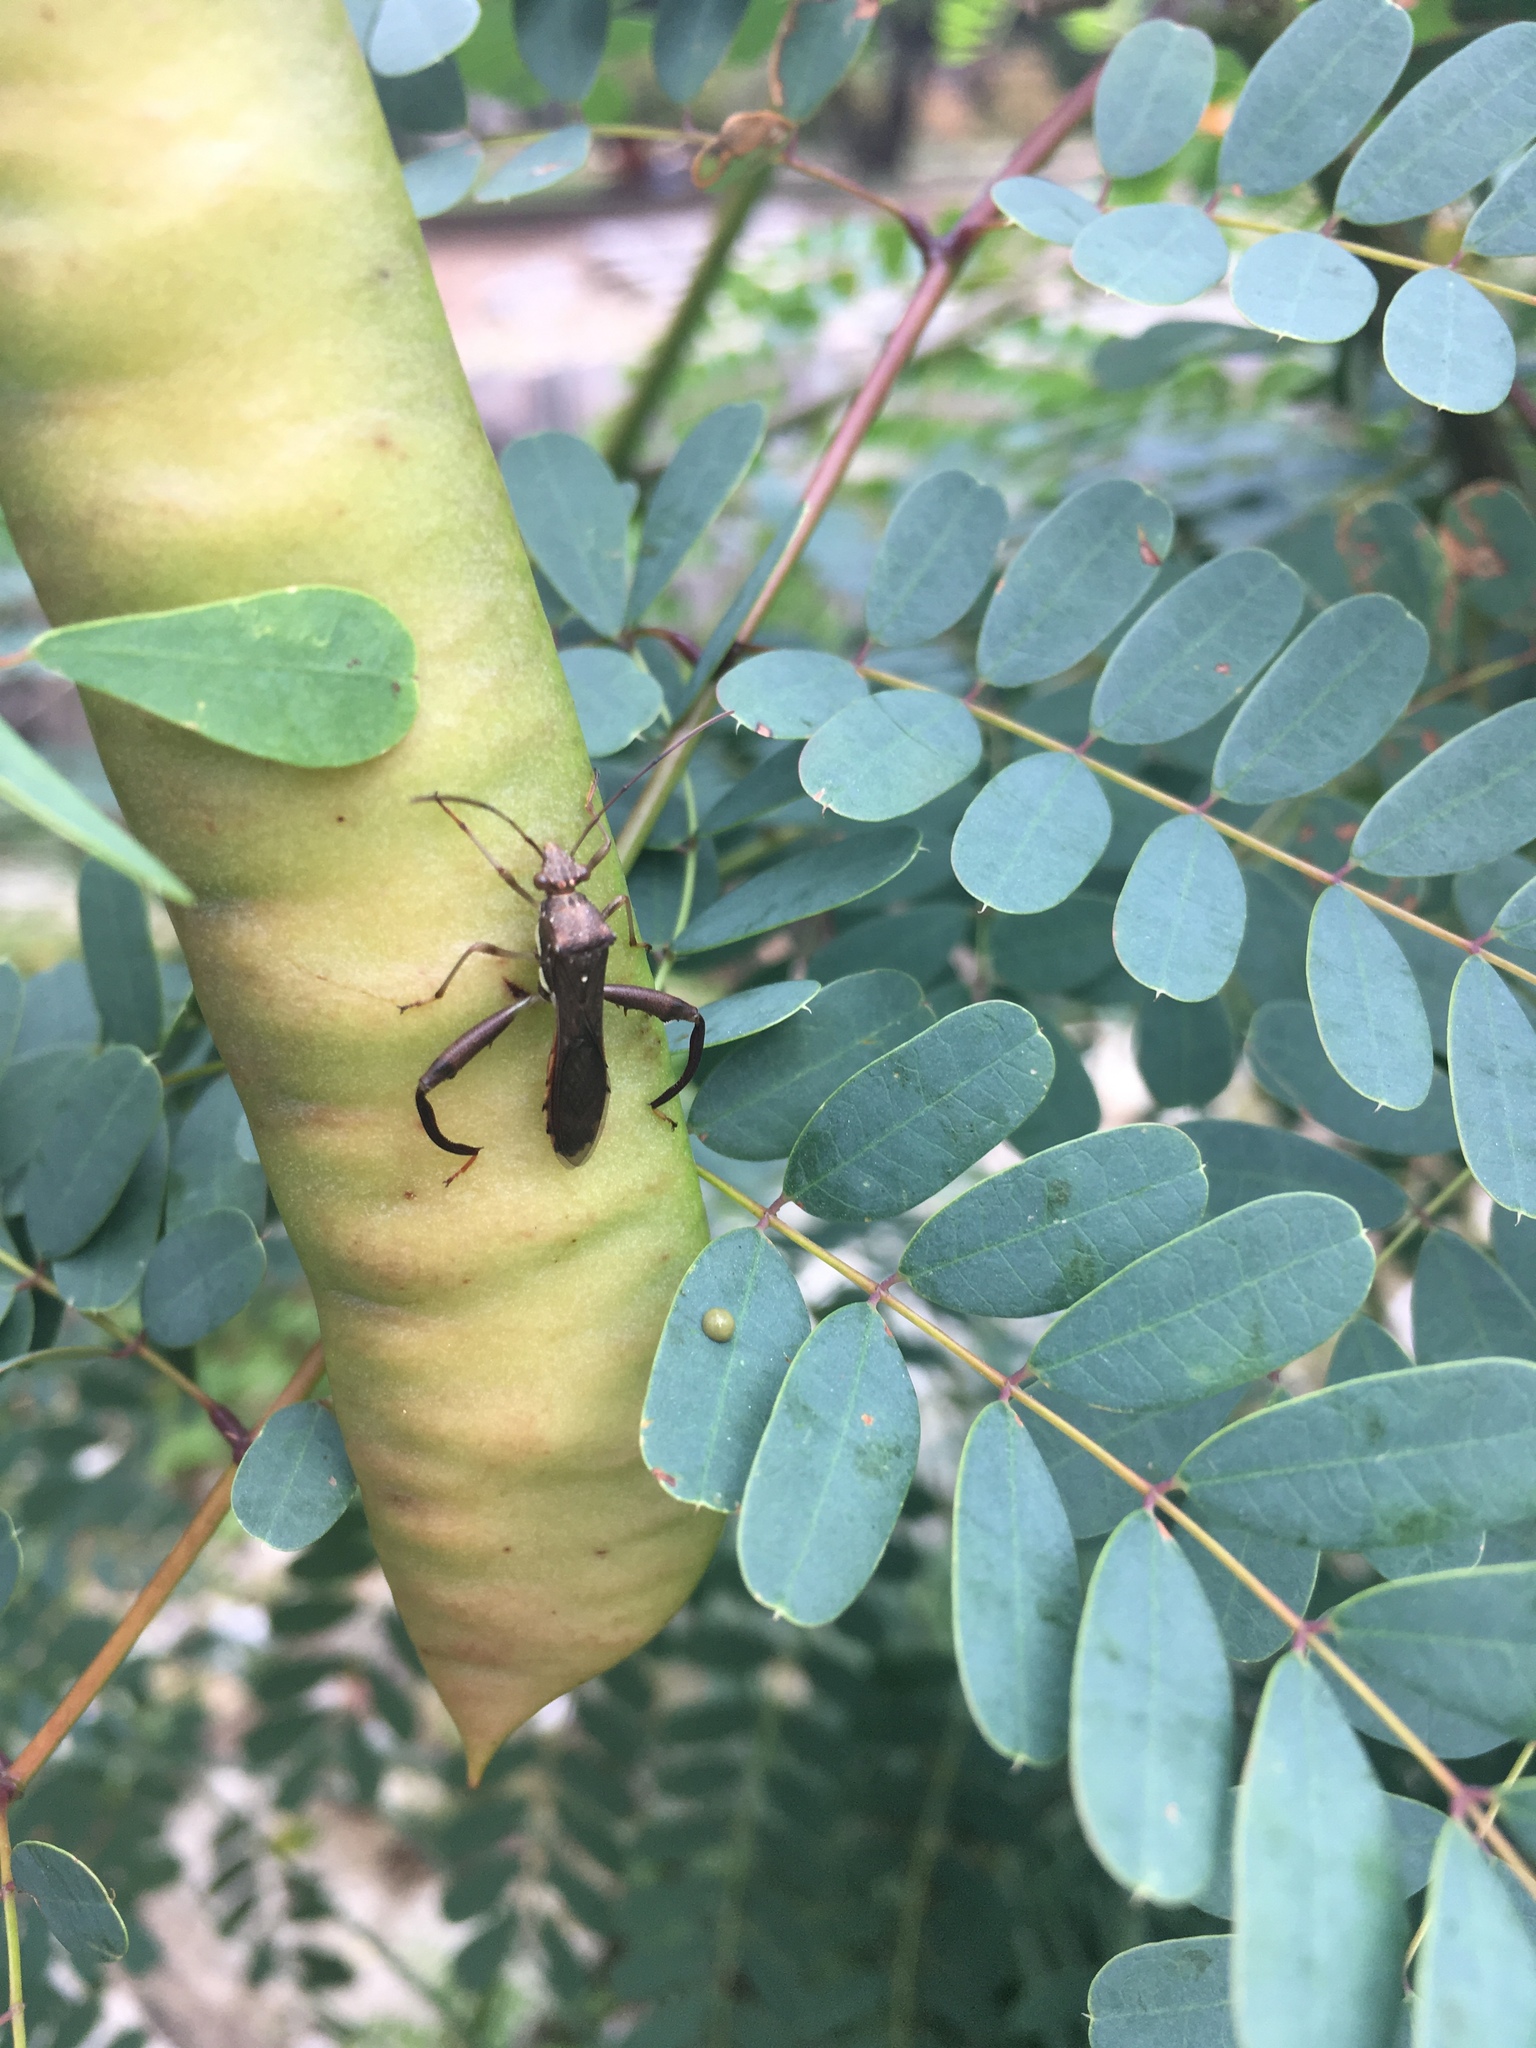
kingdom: Animalia
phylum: Arthropoda
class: Insecta
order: Hemiptera
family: Alydidae
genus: Hyalymenus
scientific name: Hyalymenus tarsatus
